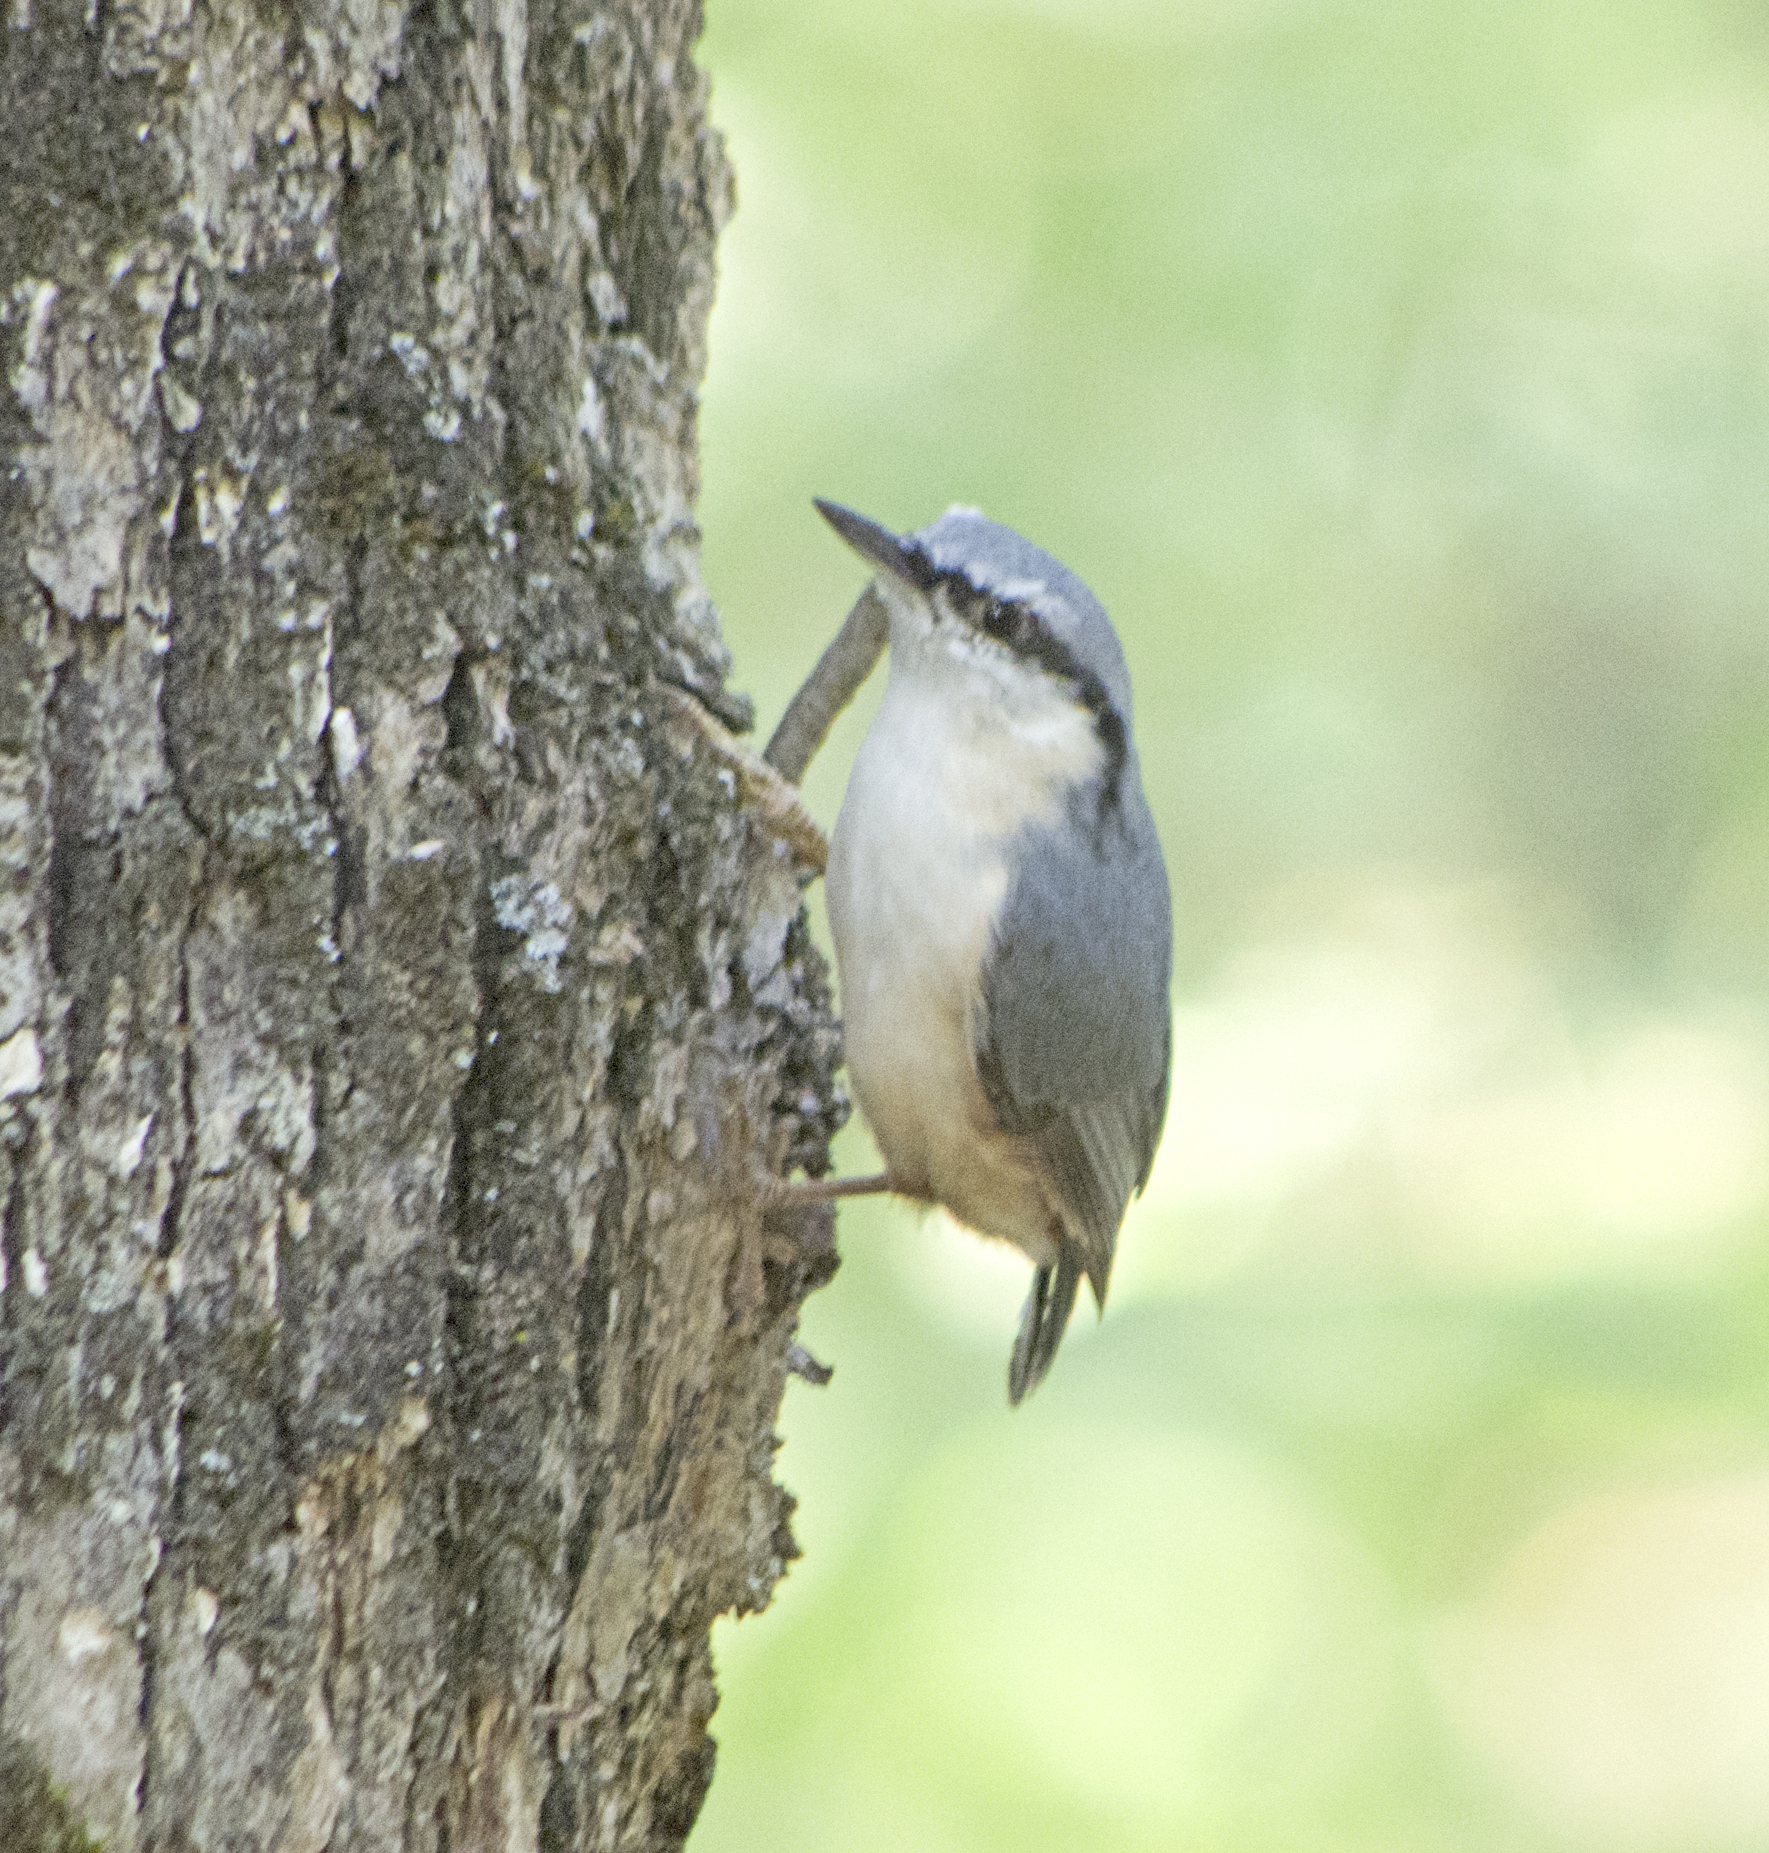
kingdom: Animalia
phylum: Chordata
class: Aves
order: Passeriformes
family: Sittidae
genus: Sitta
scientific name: Sitta europaea
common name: Eurasian nuthatch
